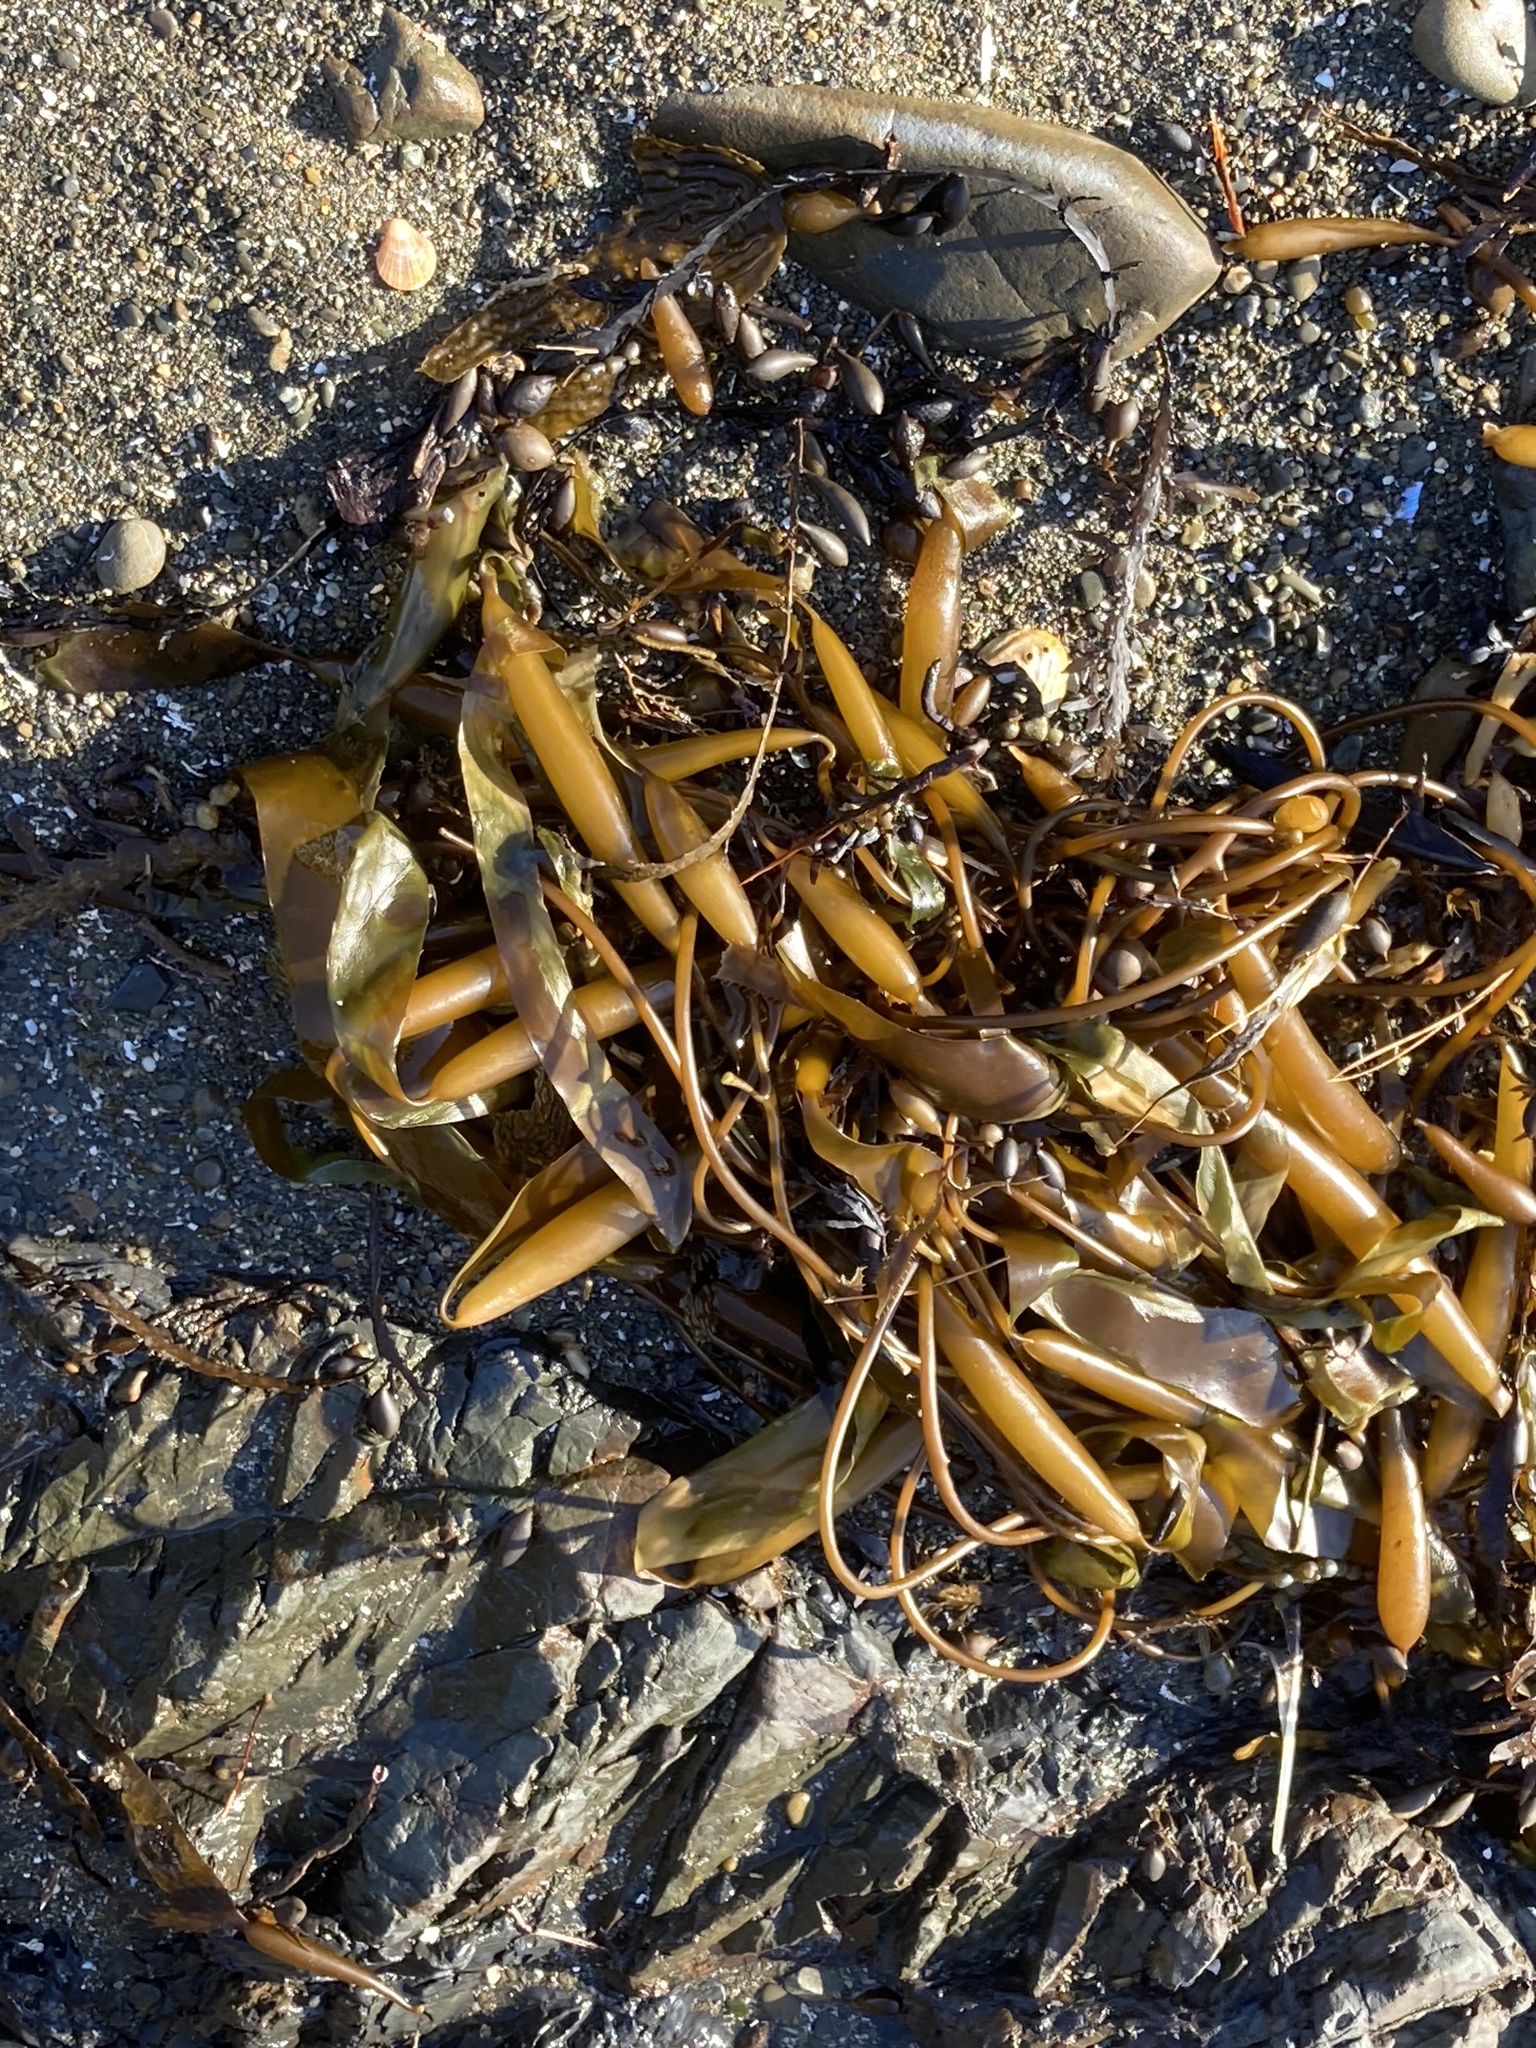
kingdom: Chromista
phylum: Ochrophyta
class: Phaeophyceae
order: Laminariales
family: Laminariaceae
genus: Macrocystis
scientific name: Macrocystis pyrifera
